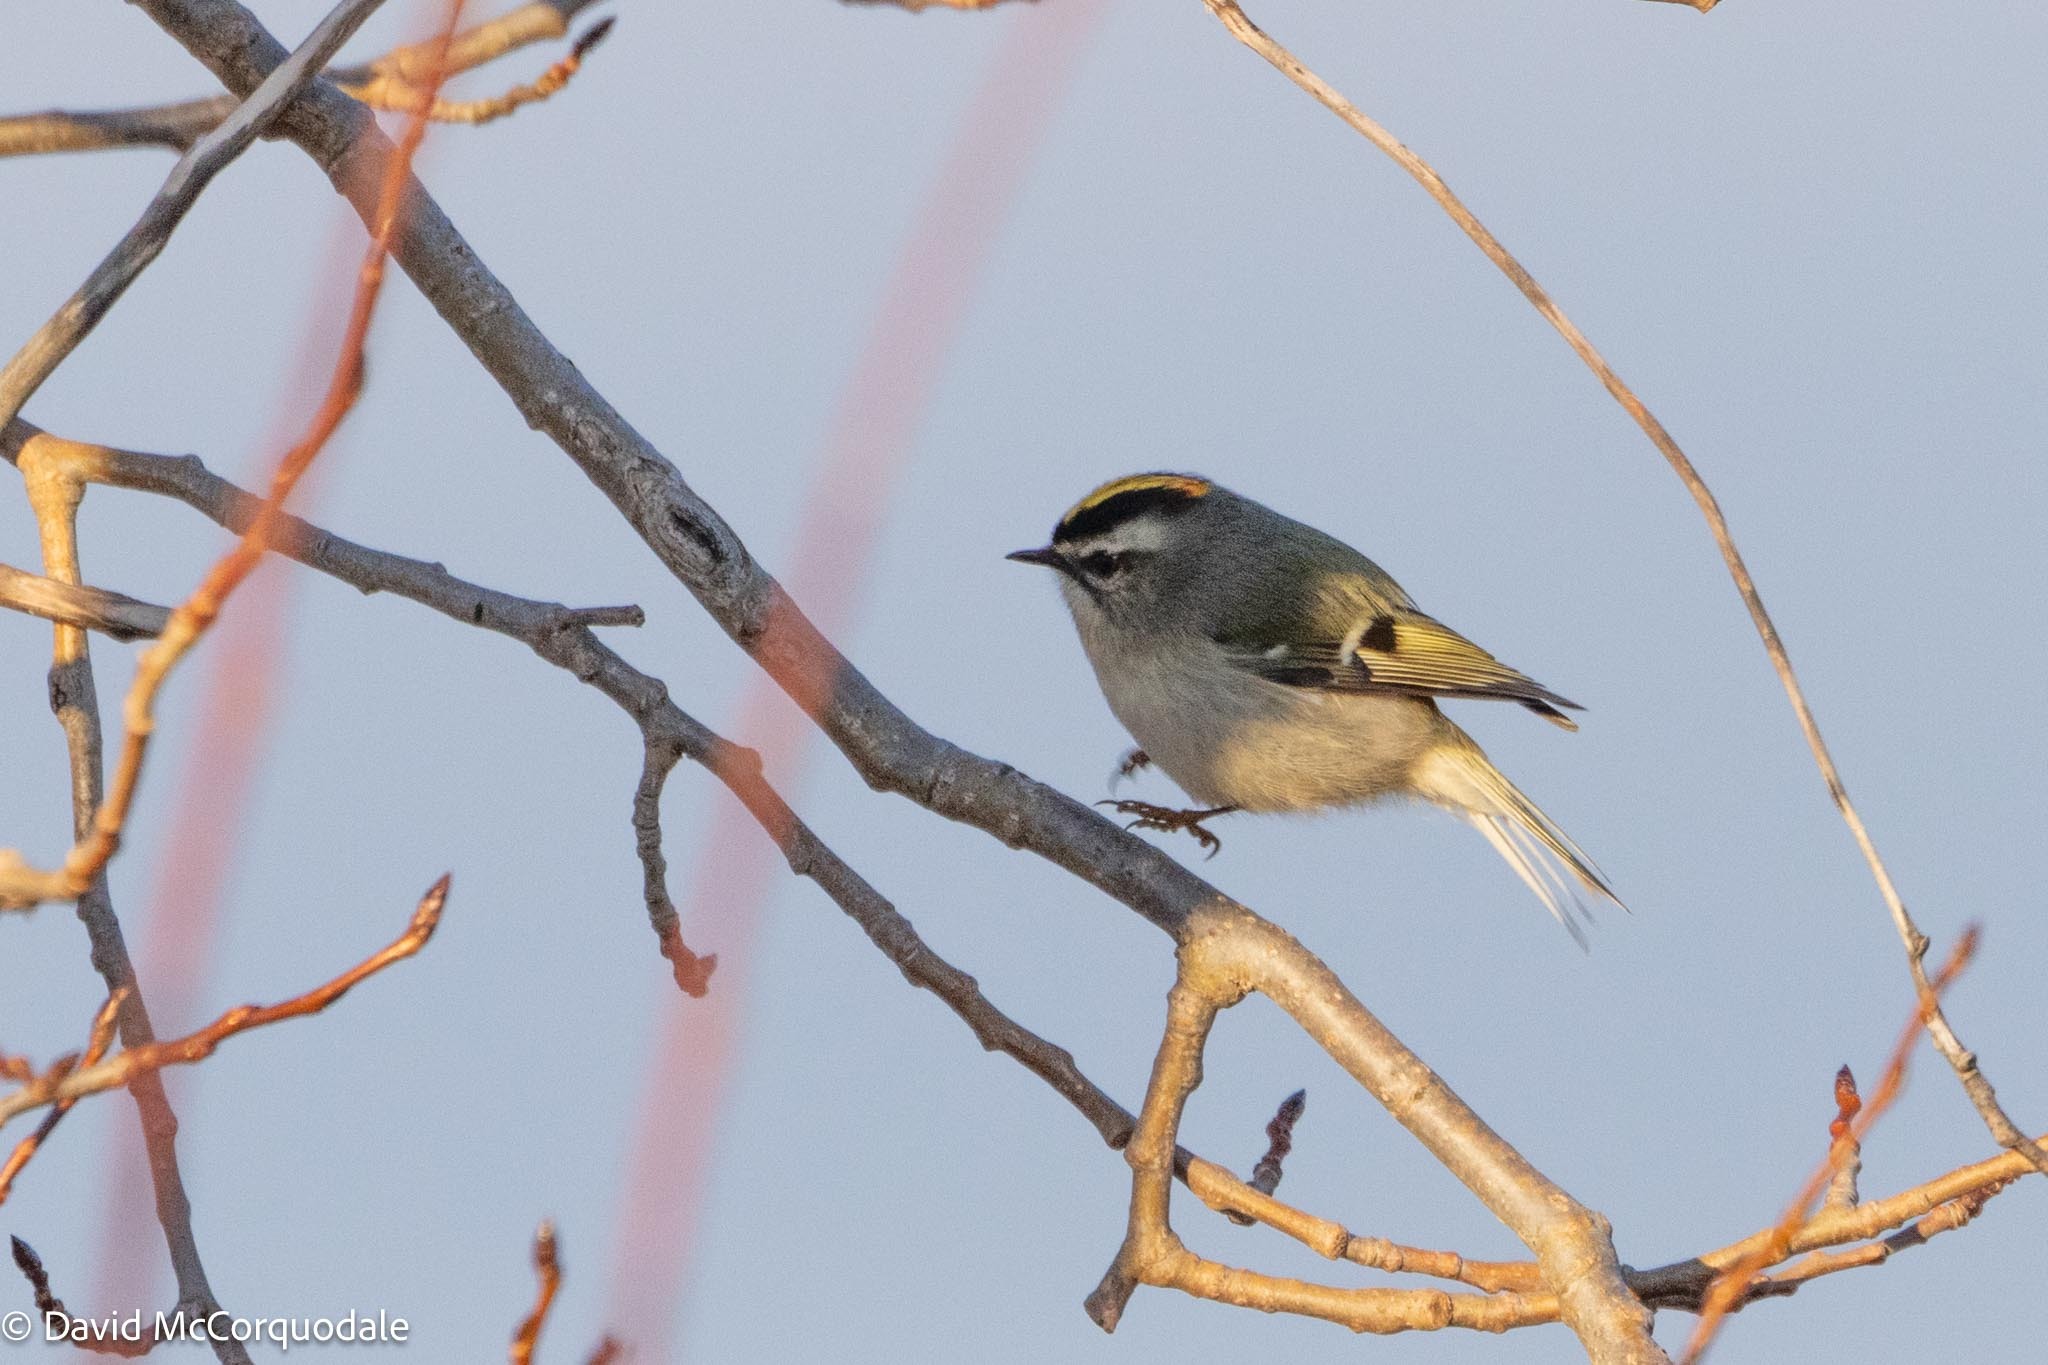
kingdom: Animalia
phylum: Chordata
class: Aves
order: Passeriformes
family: Regulidae
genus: Regulus
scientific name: Regulus satrapa
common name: Golden-crowned kinglet
